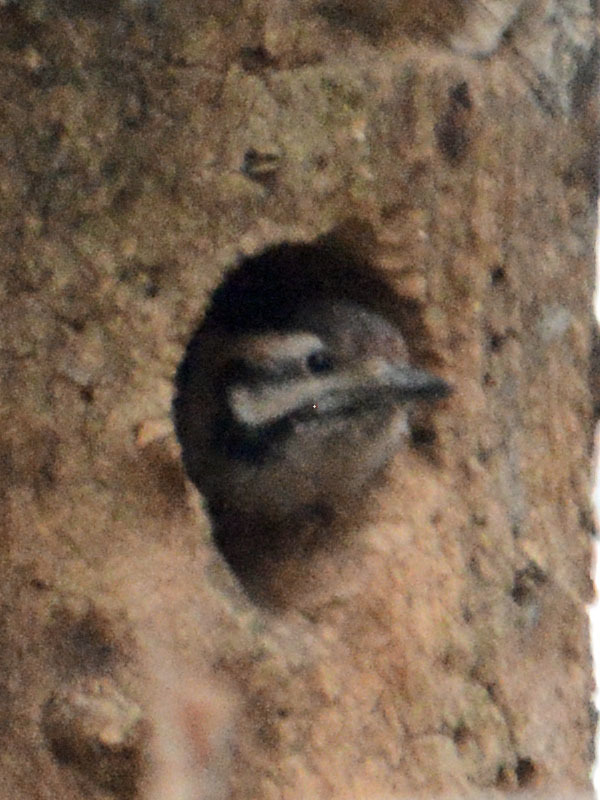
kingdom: Animalia
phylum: Chordata
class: Aves
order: Piciformes
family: Picidae
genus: Dryobates
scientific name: Dryobates scalaris
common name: Ladder-backed woodpecker
